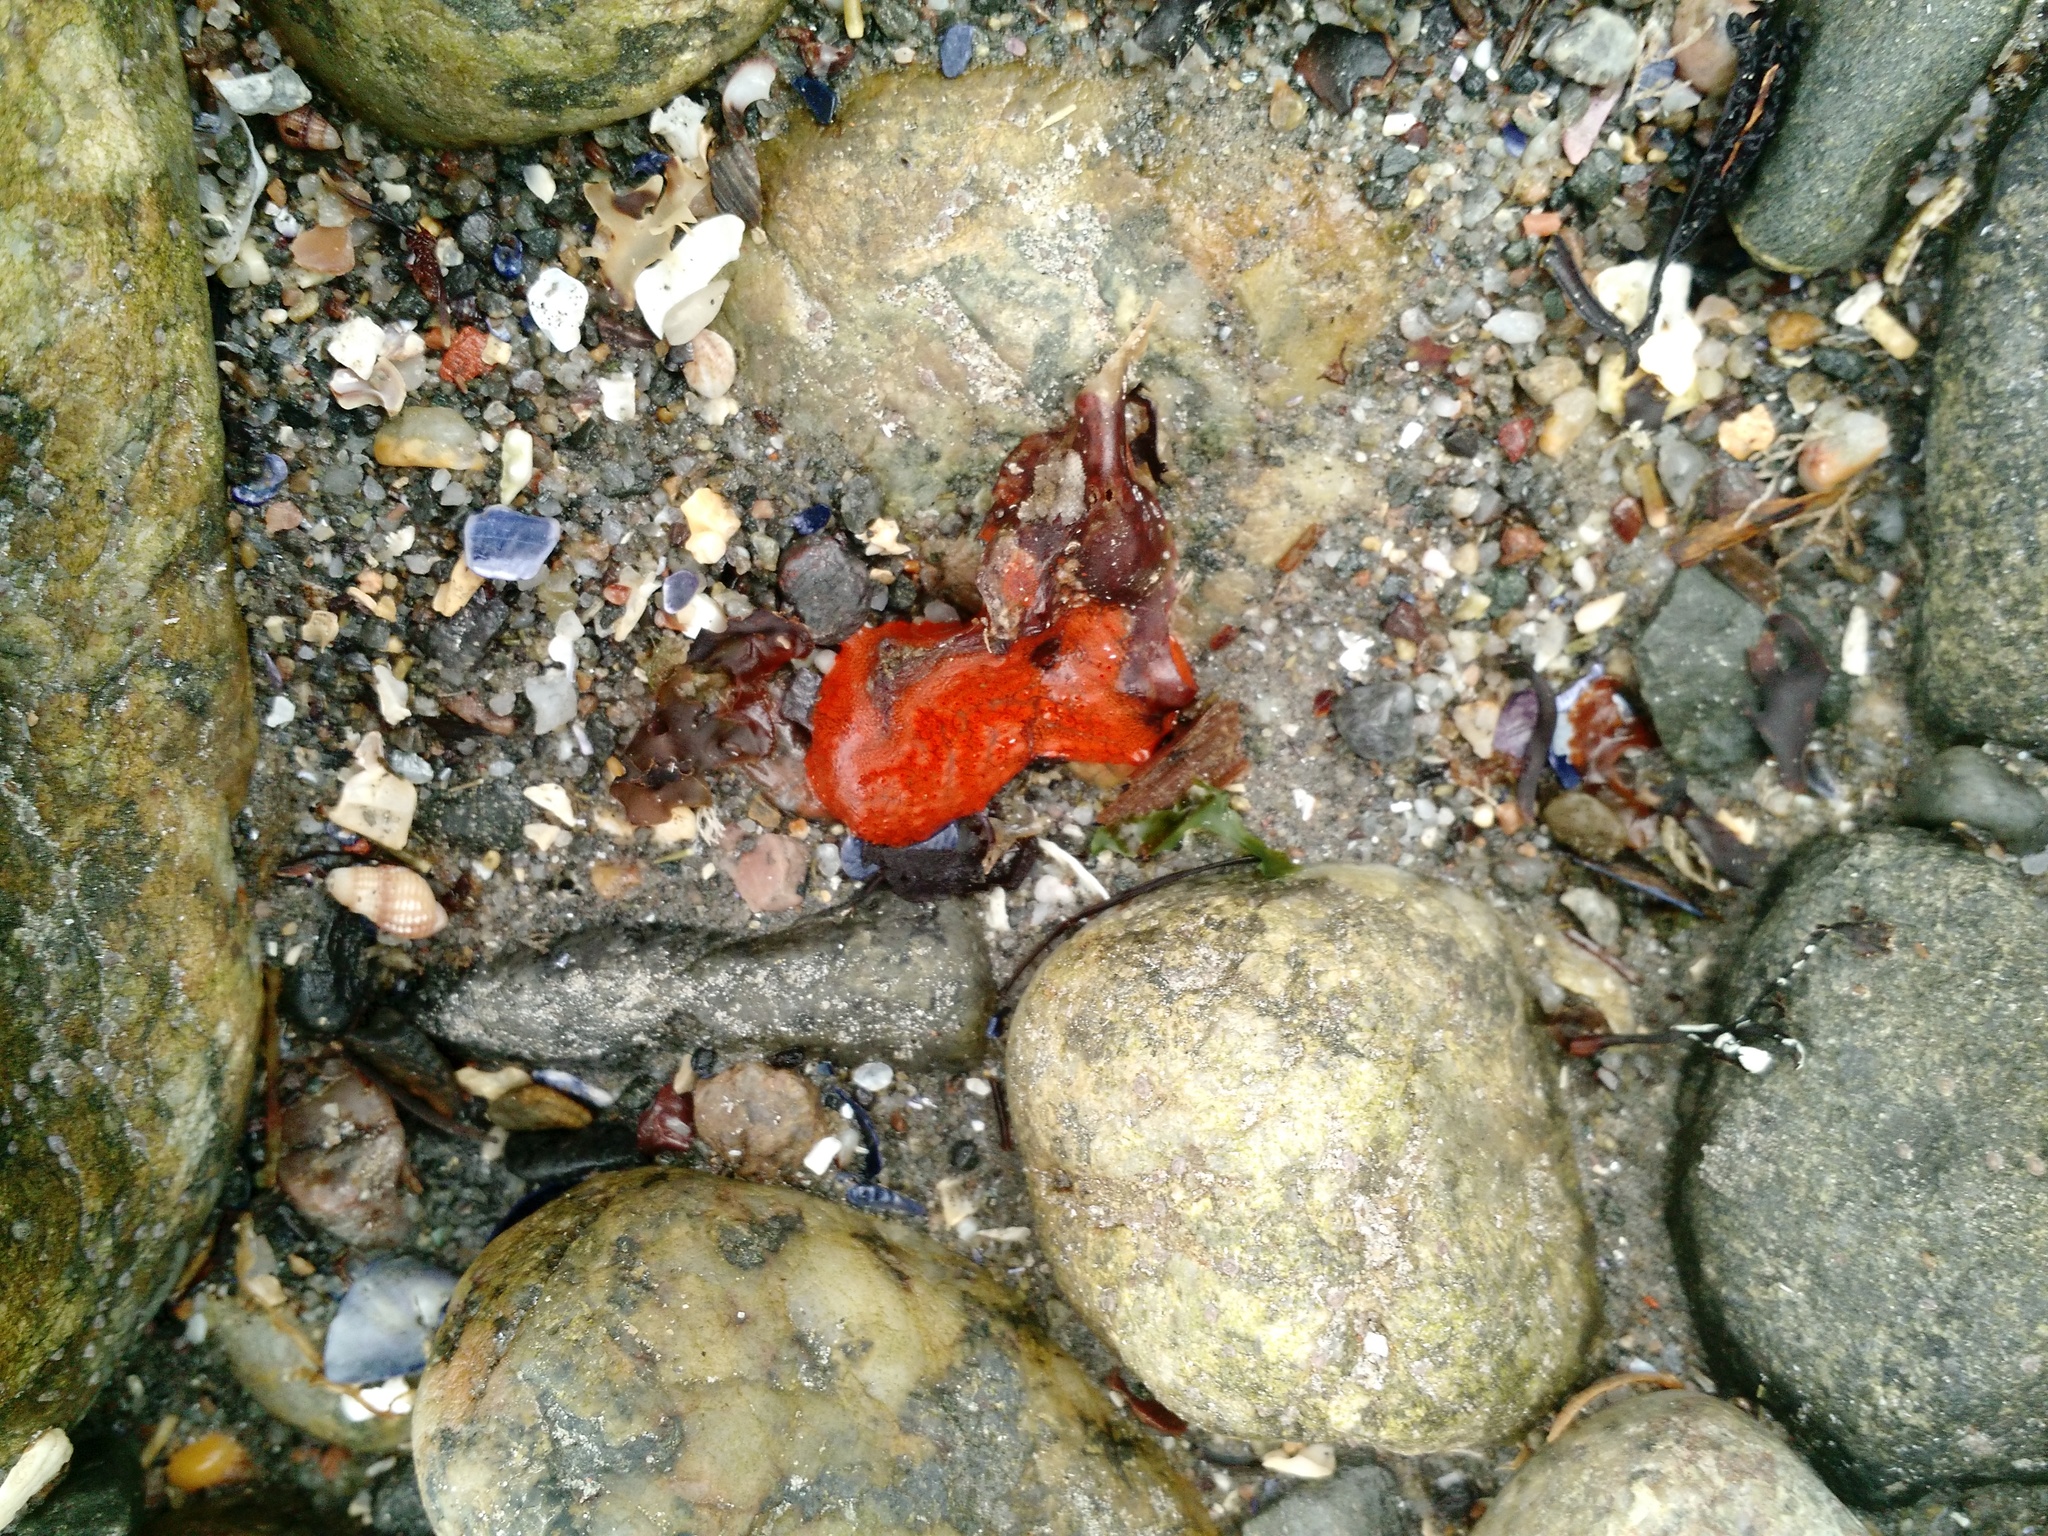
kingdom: Animalia
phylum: Chordata
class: Ascidiacea
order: Stolidobranchia
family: Styelidae
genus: Botrylloides
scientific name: Botrylloides violaceus
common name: Colonial sea squirt
